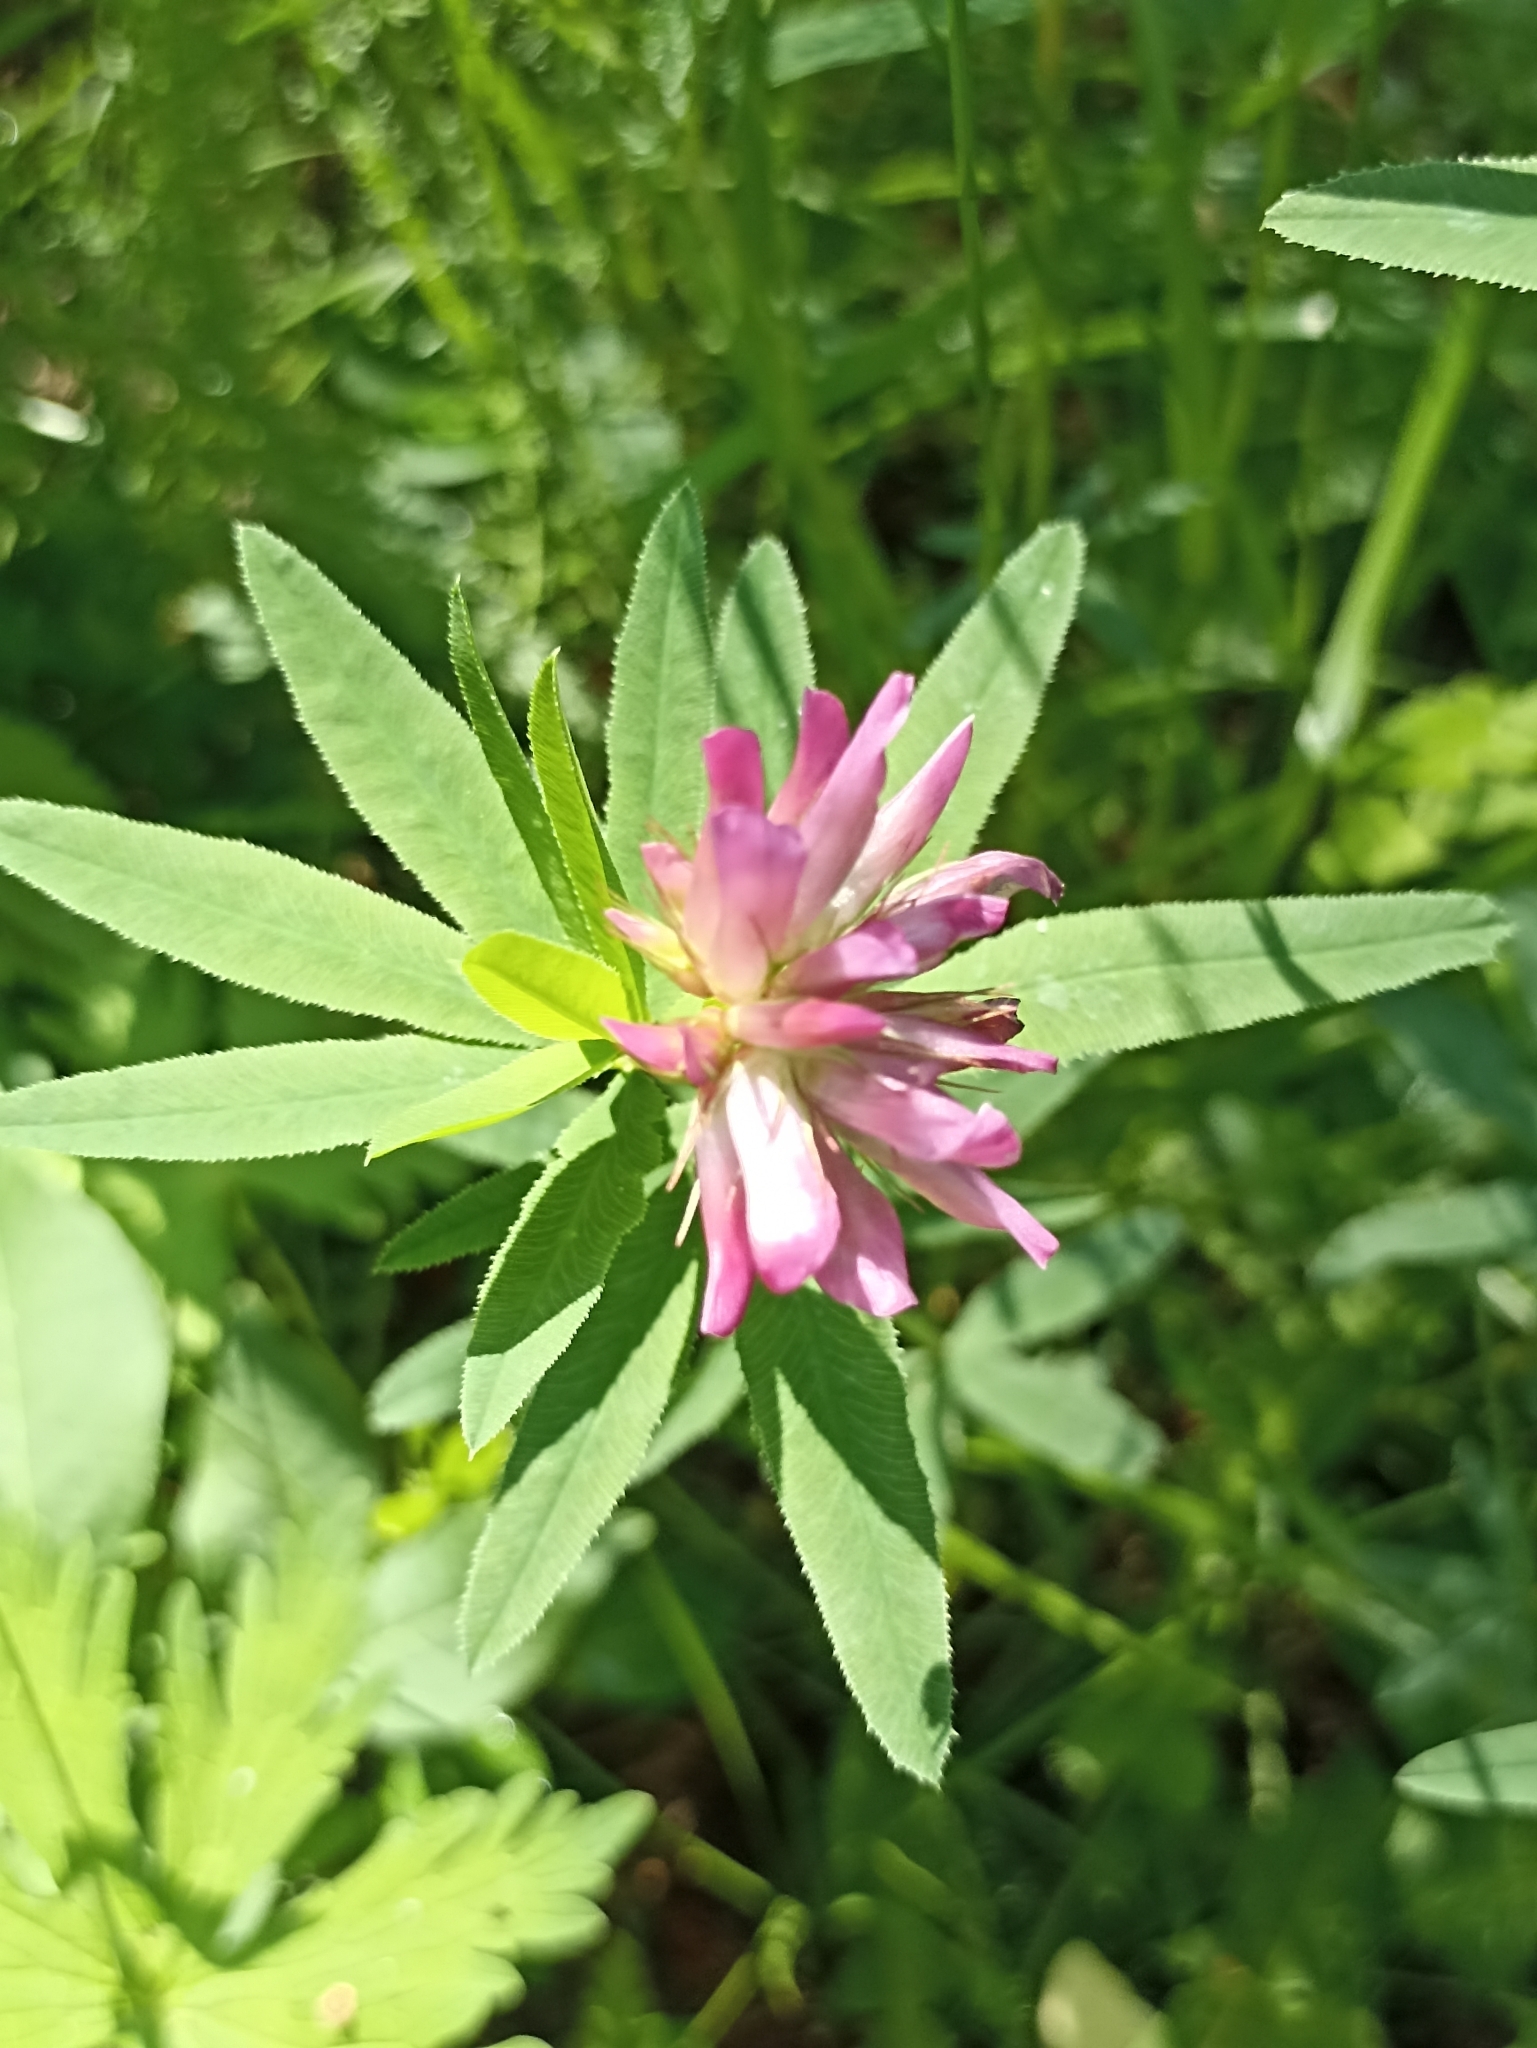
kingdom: Plantae
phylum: Tracheophyta
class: Magnoliopsida
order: Fabales
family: Fabaceae
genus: Trifolium
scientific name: Trifolium lupinaster
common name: Lupine clover
